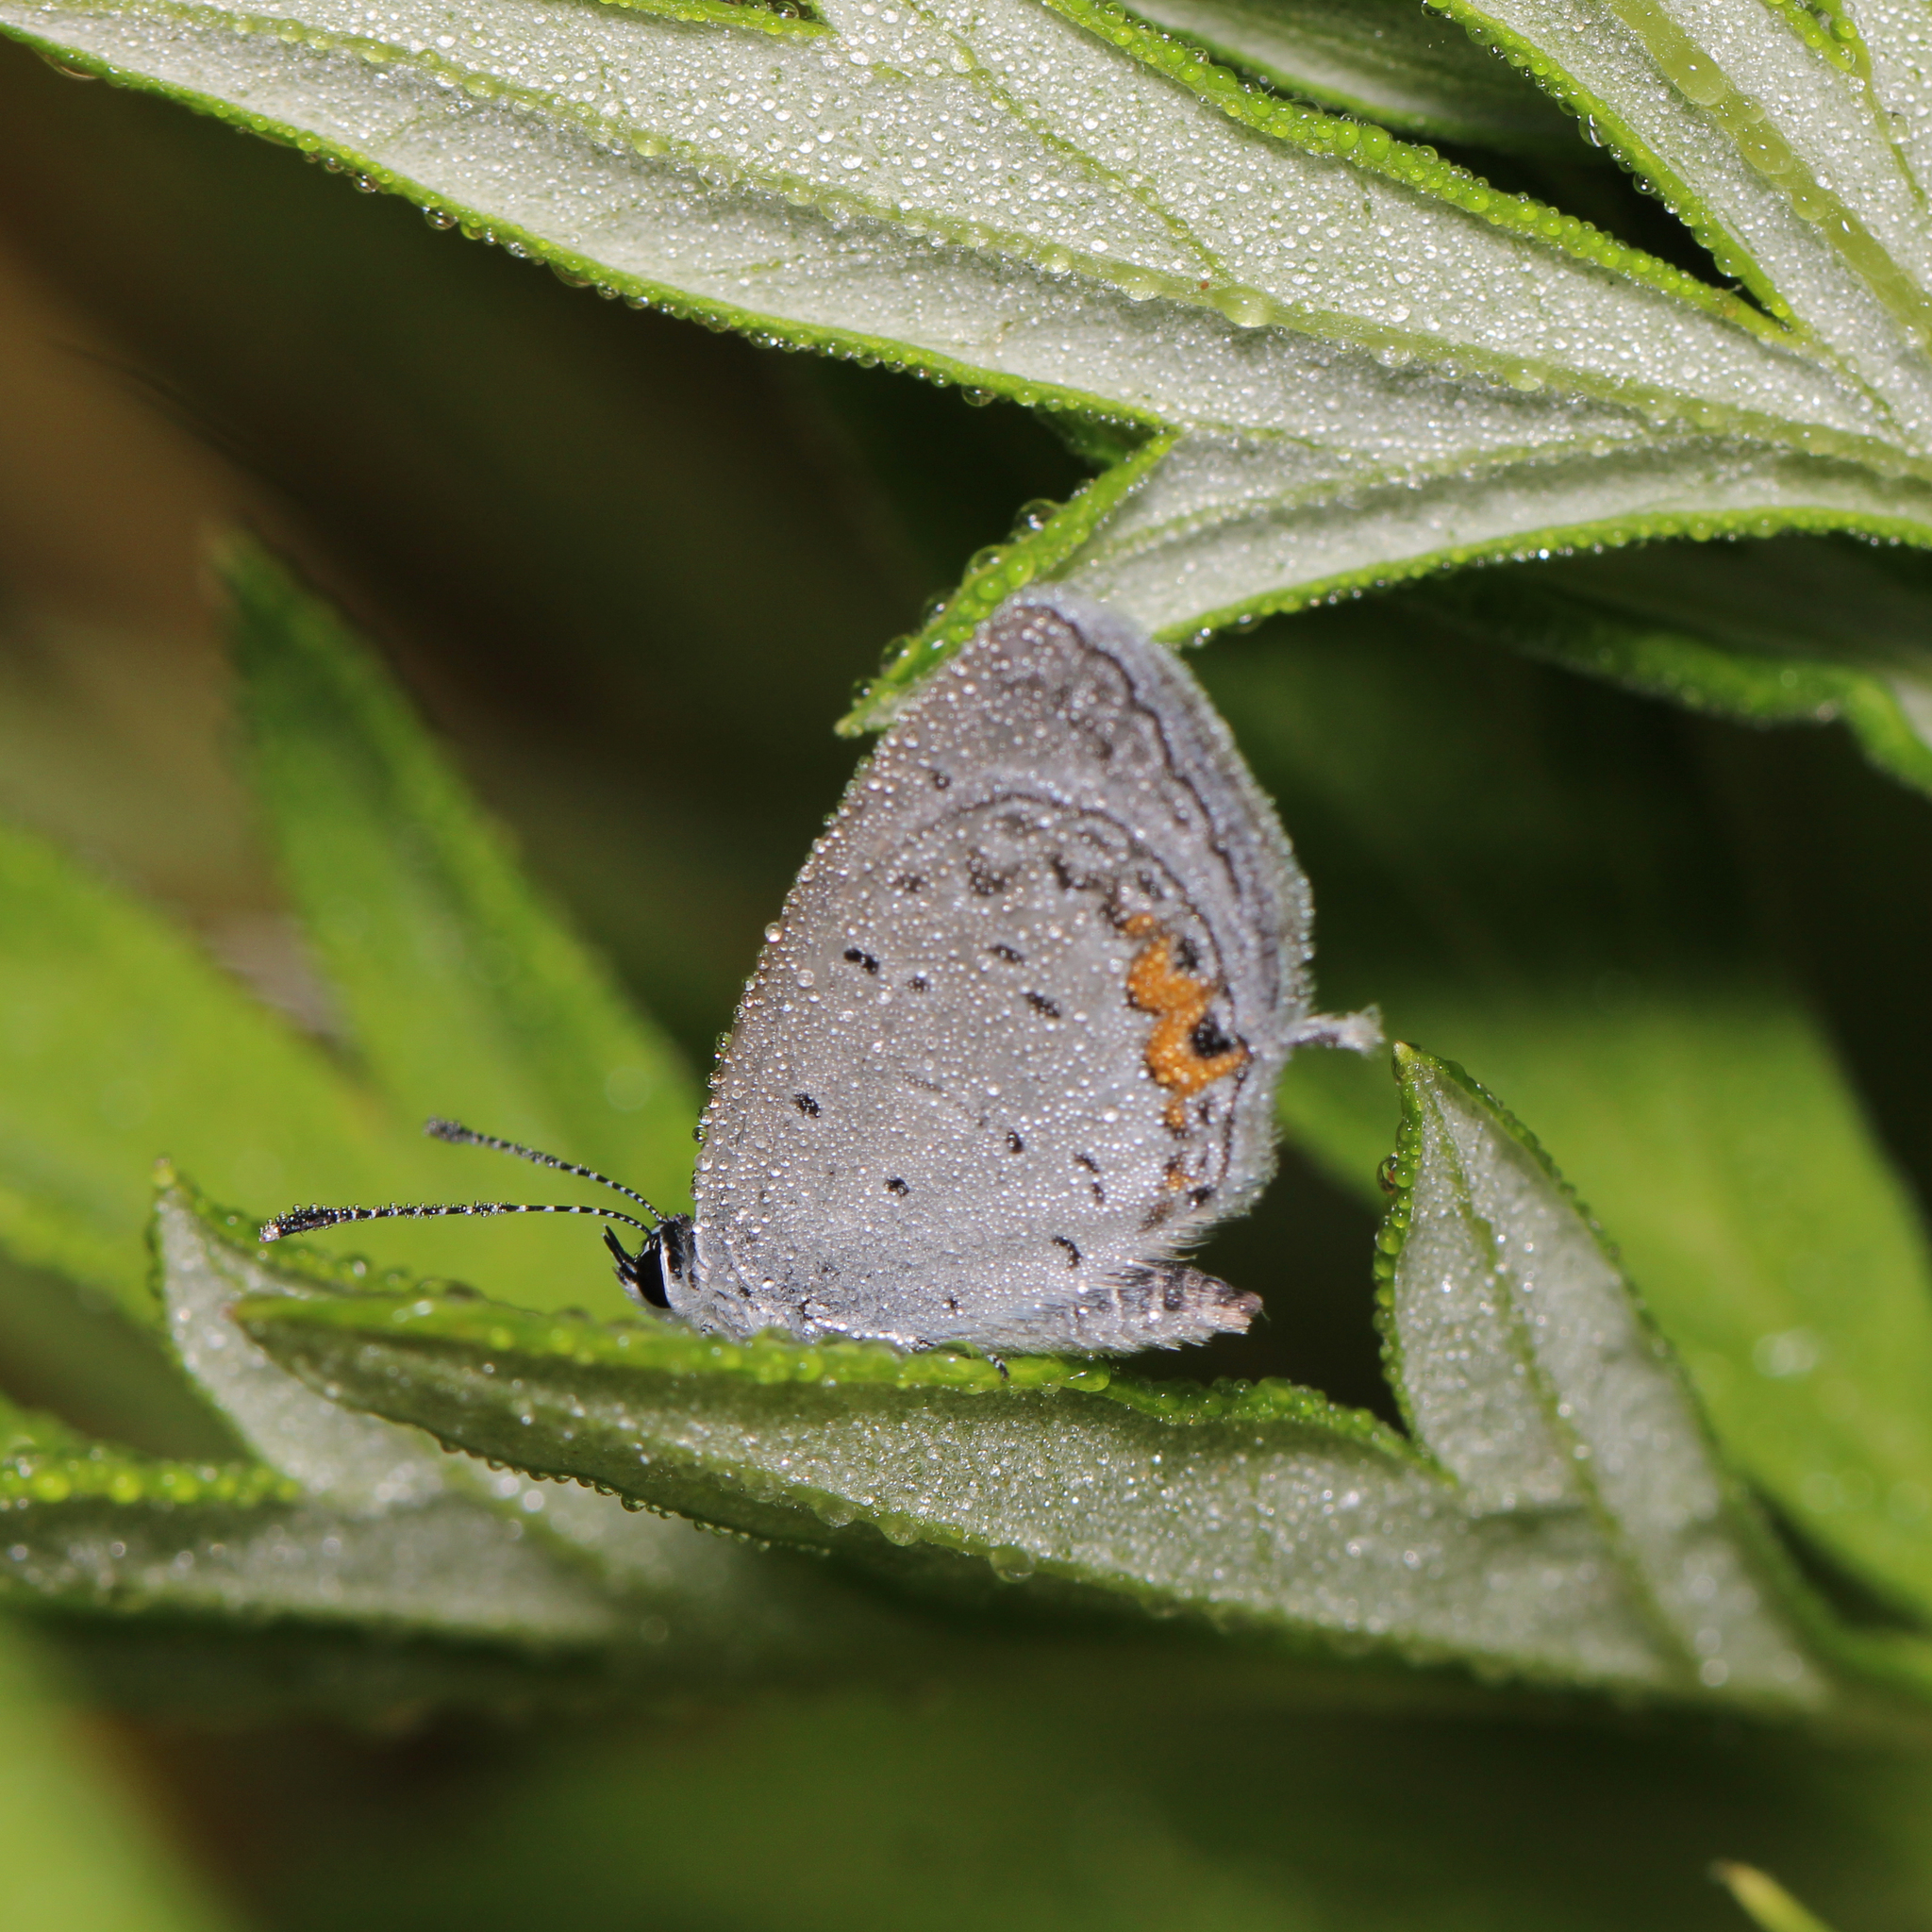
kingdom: Animalia
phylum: Arthropoda
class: Insecta
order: Lepidoptera
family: Lycaenidae
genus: Elkalyce
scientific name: Elkalyce comyntas
